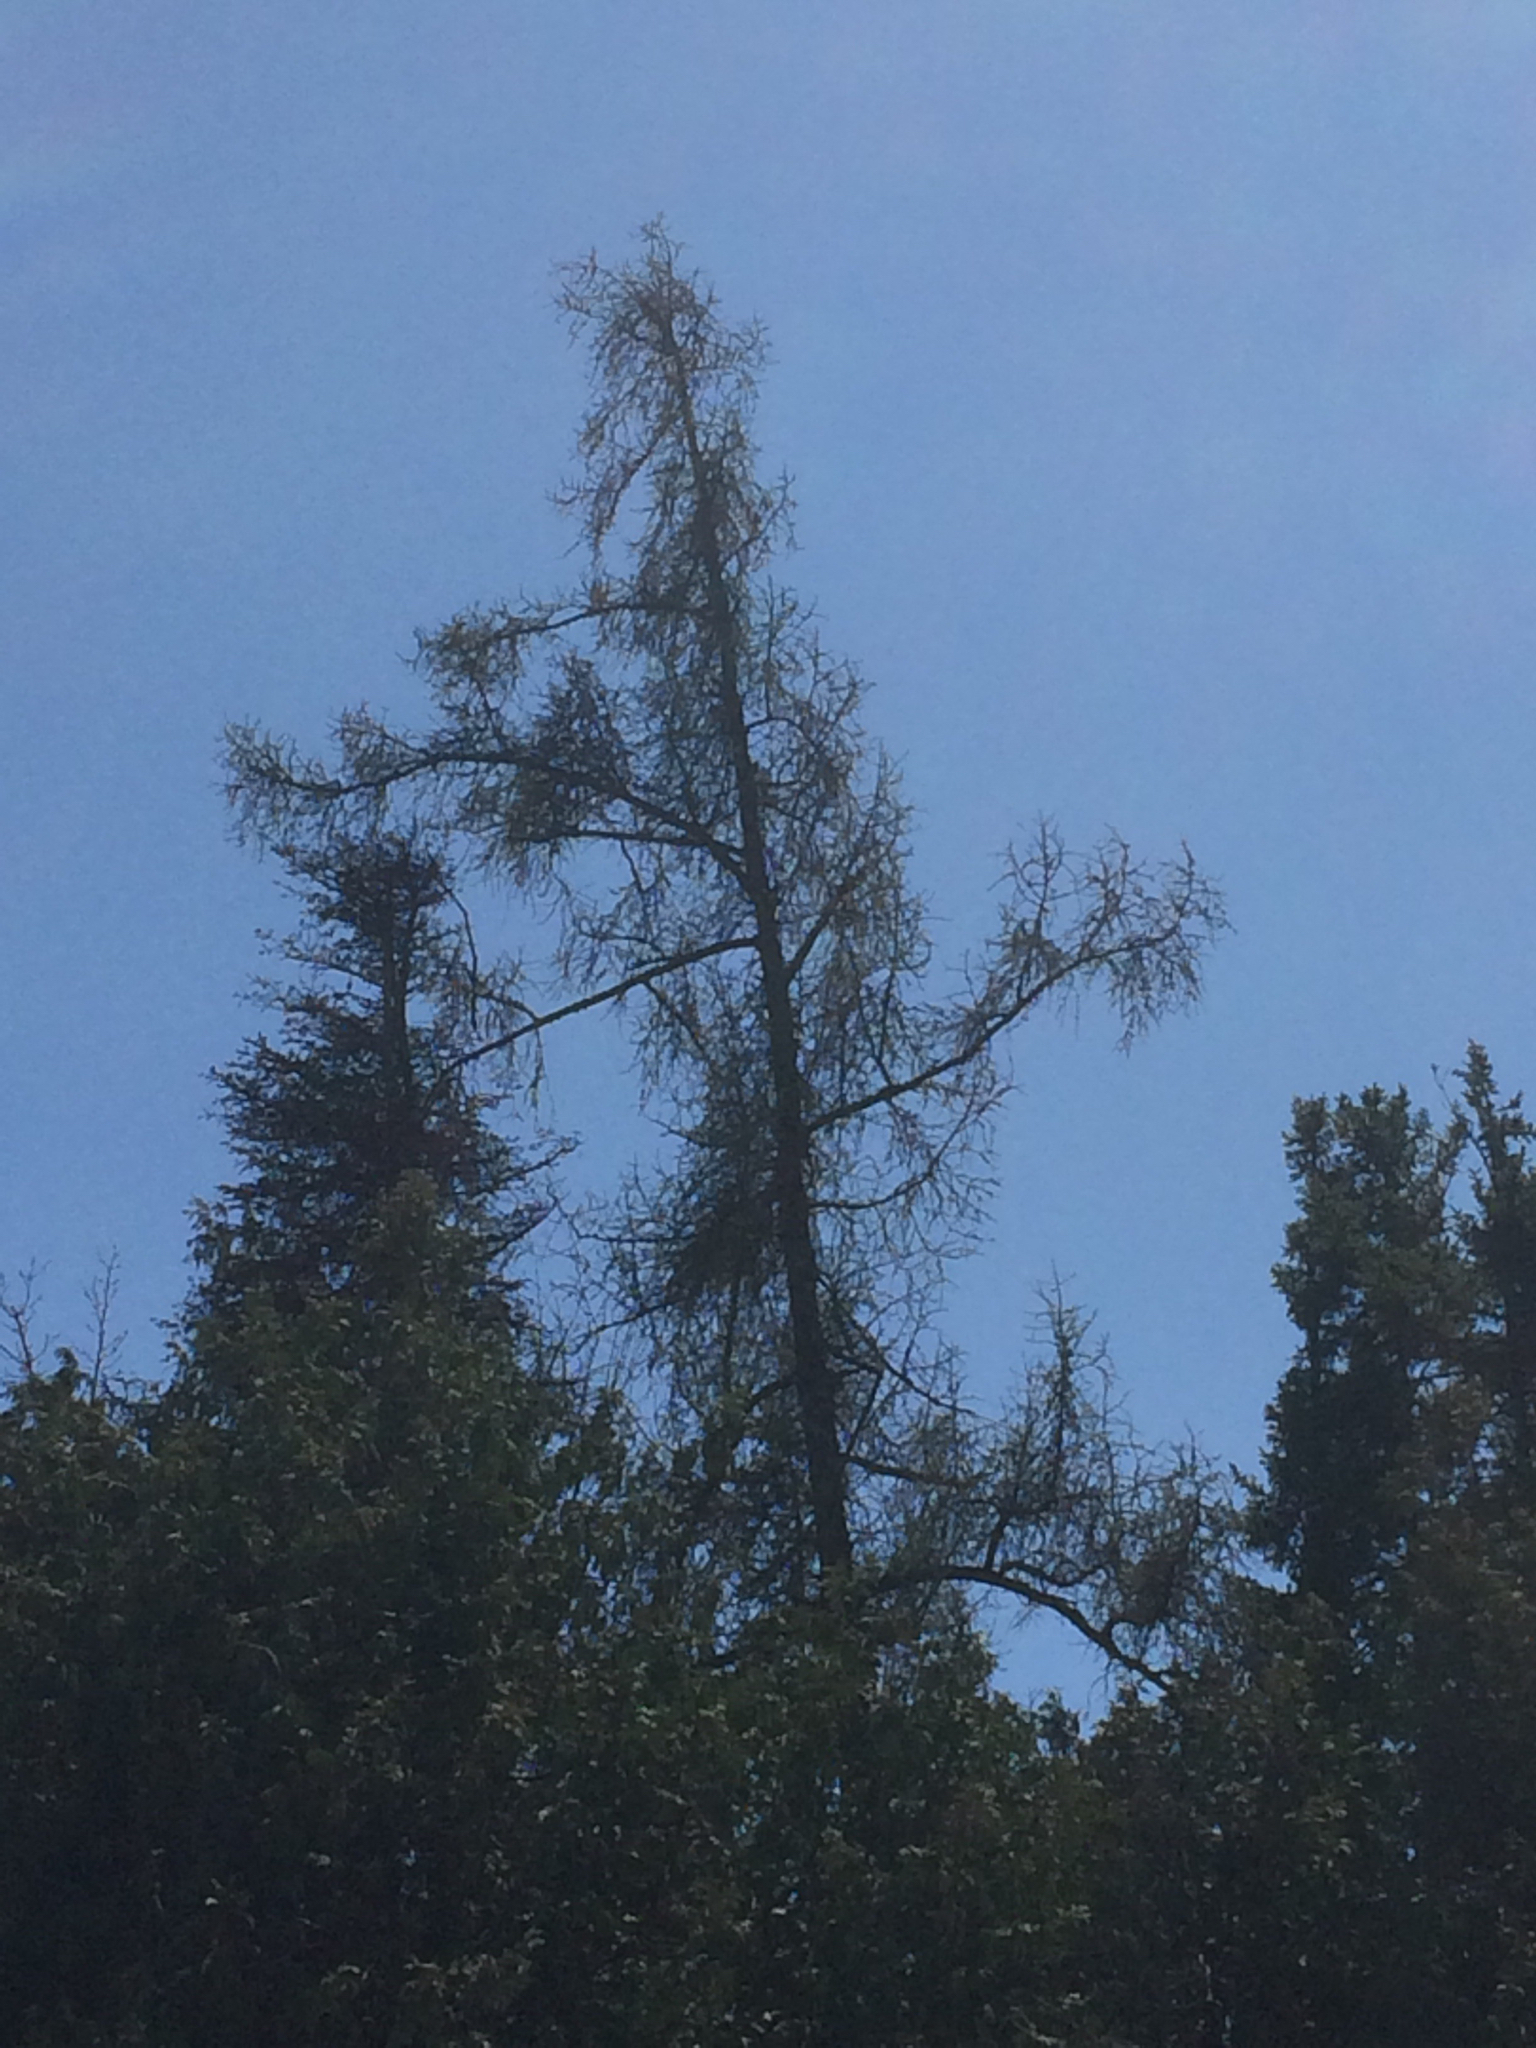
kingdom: Plantae
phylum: Tracheophyta
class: Pinopsida
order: Pinales
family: Pinaceae
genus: Larix
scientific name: Larix laricina
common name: American larch
